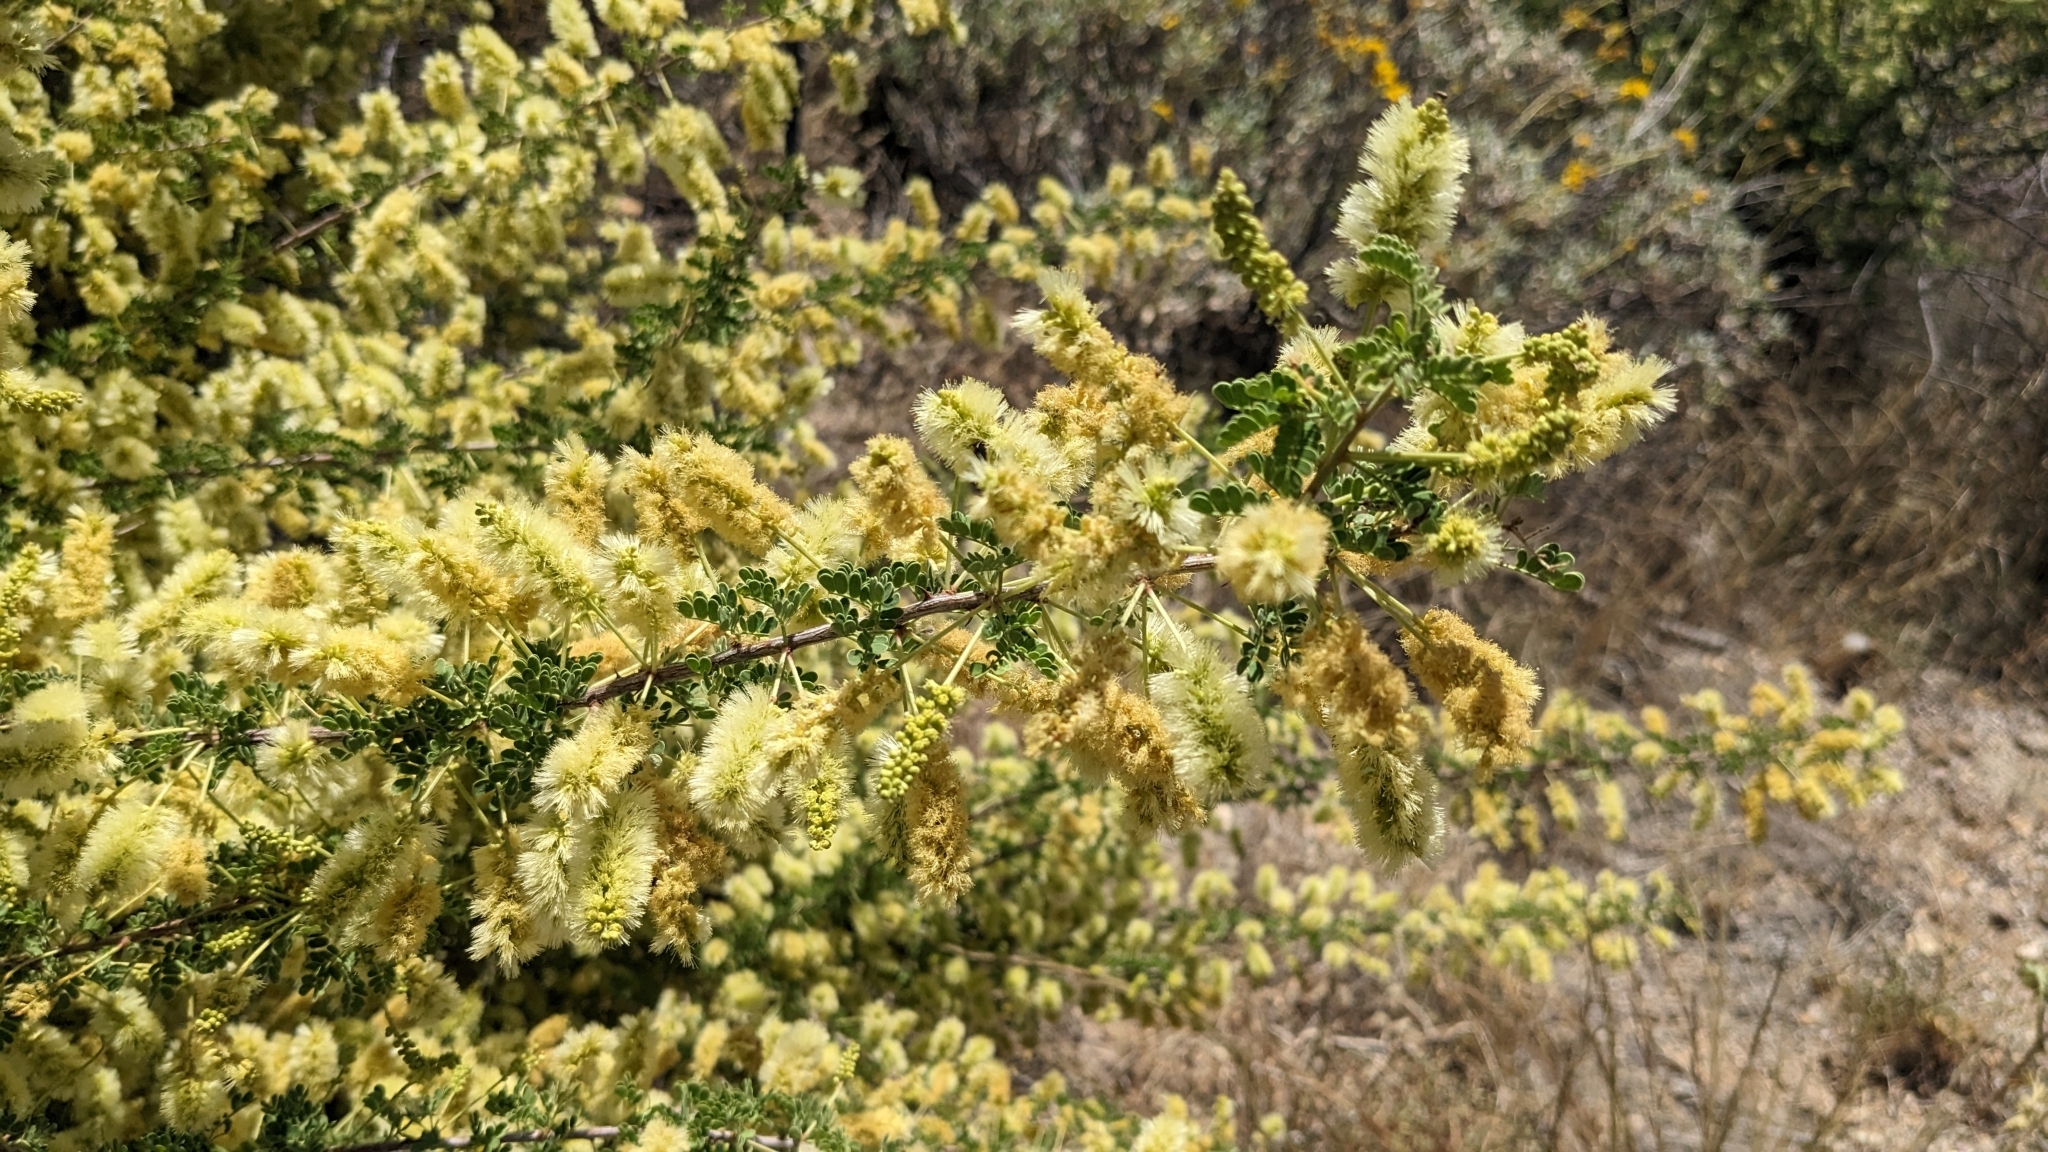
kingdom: Plantae
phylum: Tracheophyta
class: Magnoliopsida
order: Fabales
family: Fabaceae
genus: Senegalia
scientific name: Senegalia greggii
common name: Texas-mimosa
